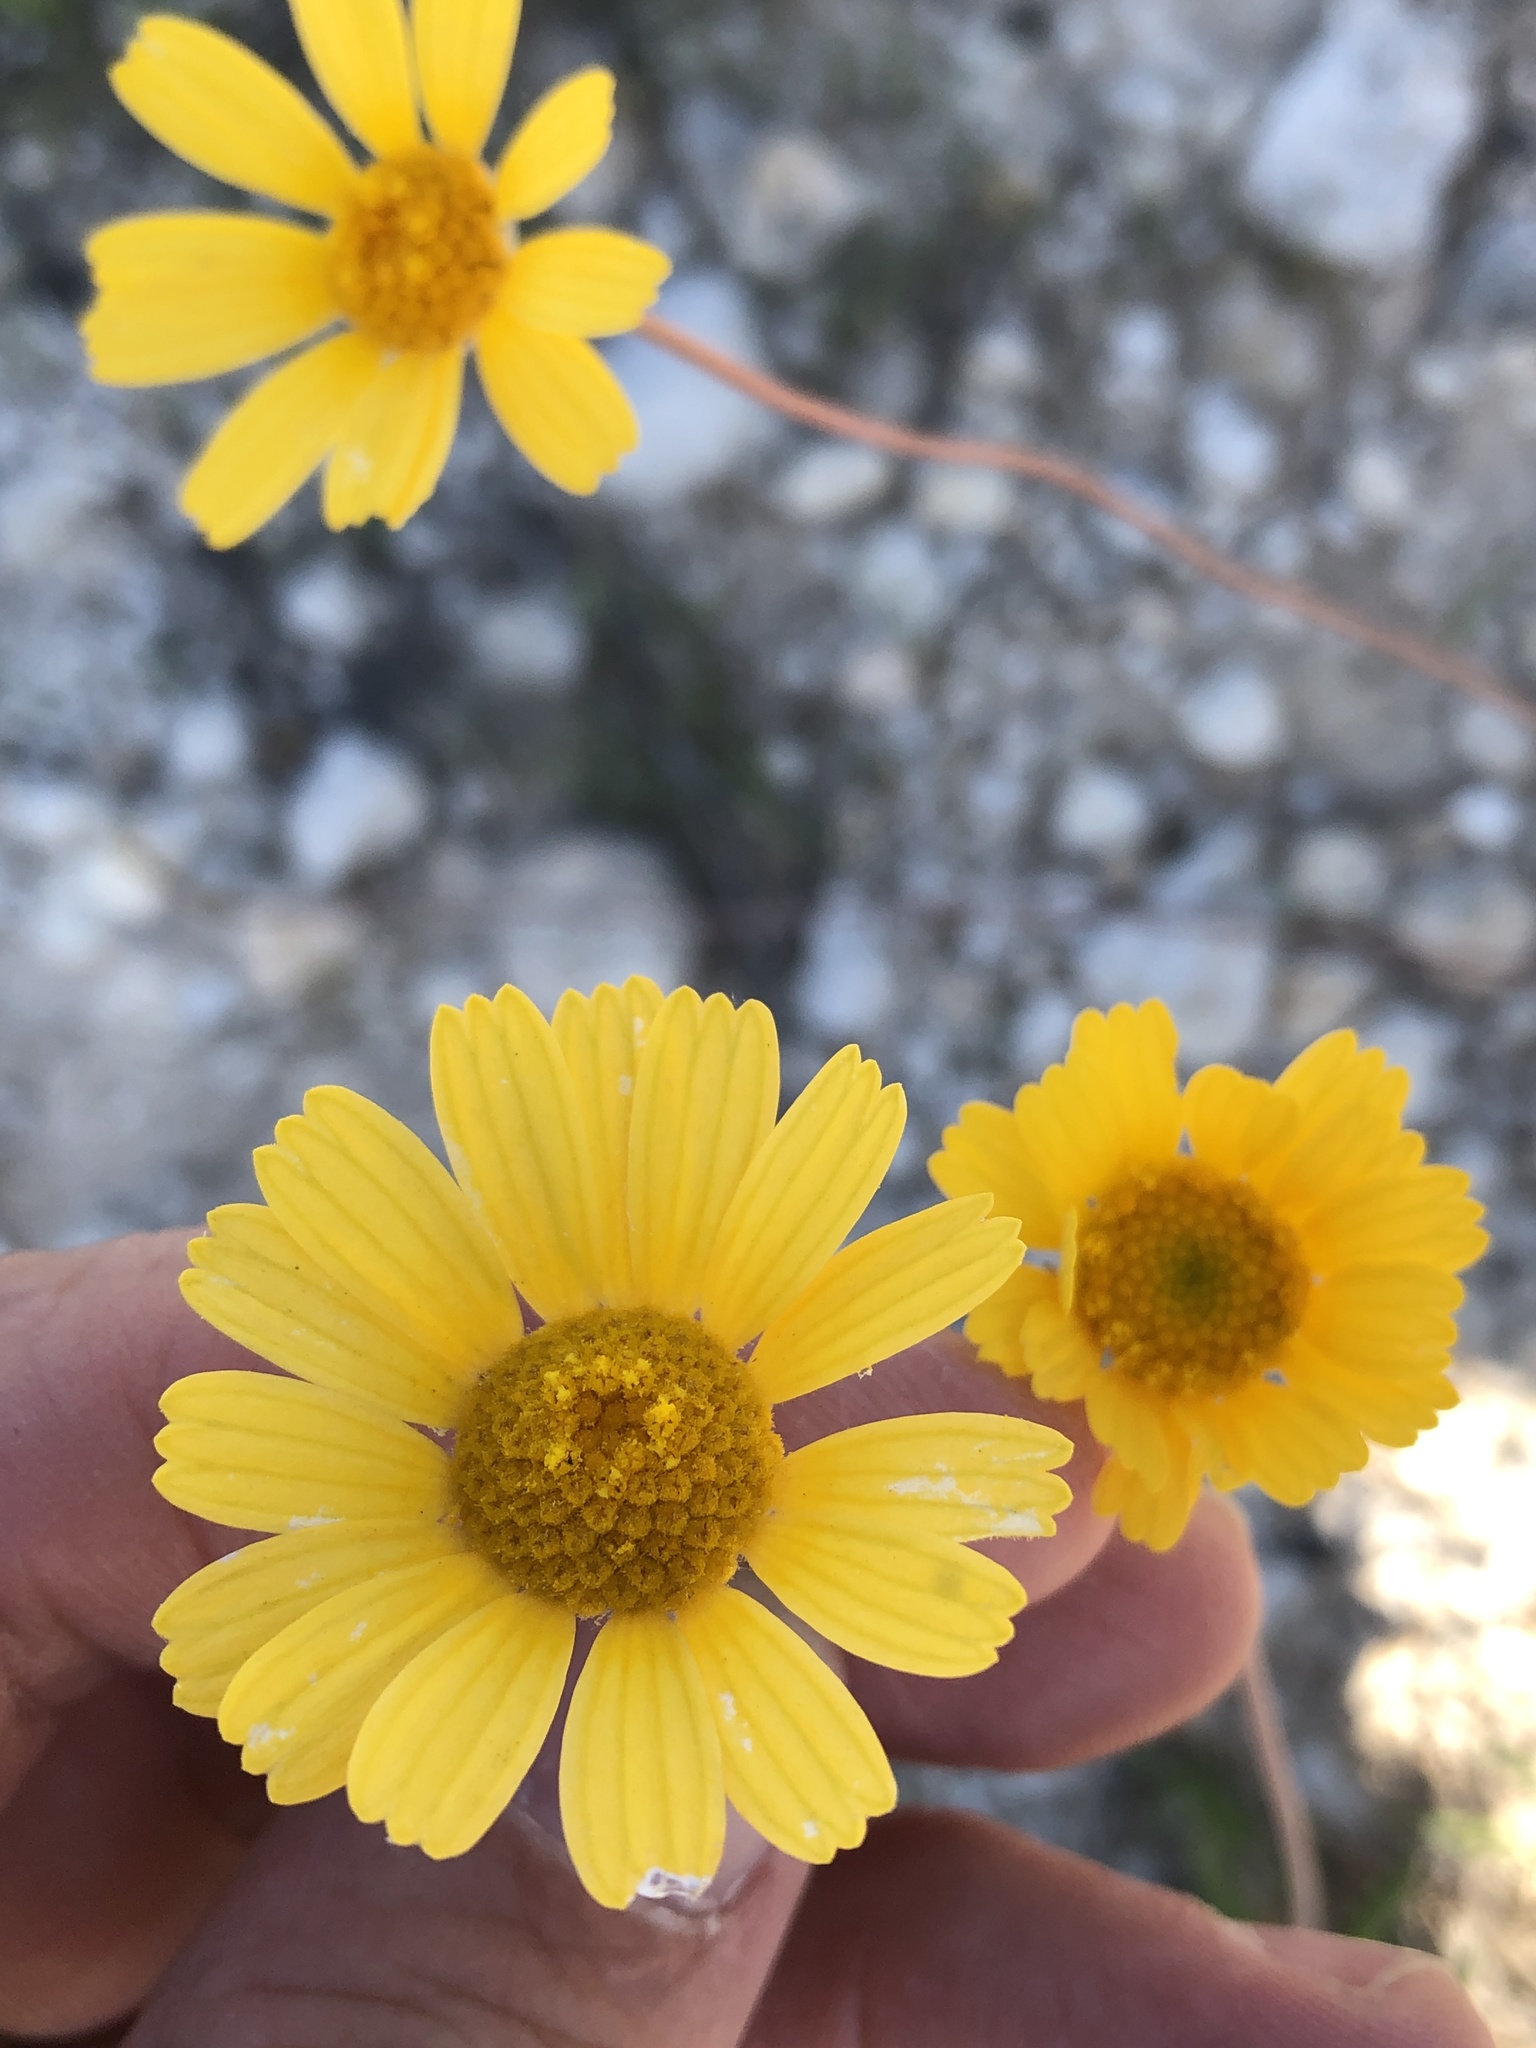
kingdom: Plantae
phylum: Tracheophyta
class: Magnoliopsida
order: Asterales
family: Asteraceae
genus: Tetraneuris
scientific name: Tetraneuris scaposa
